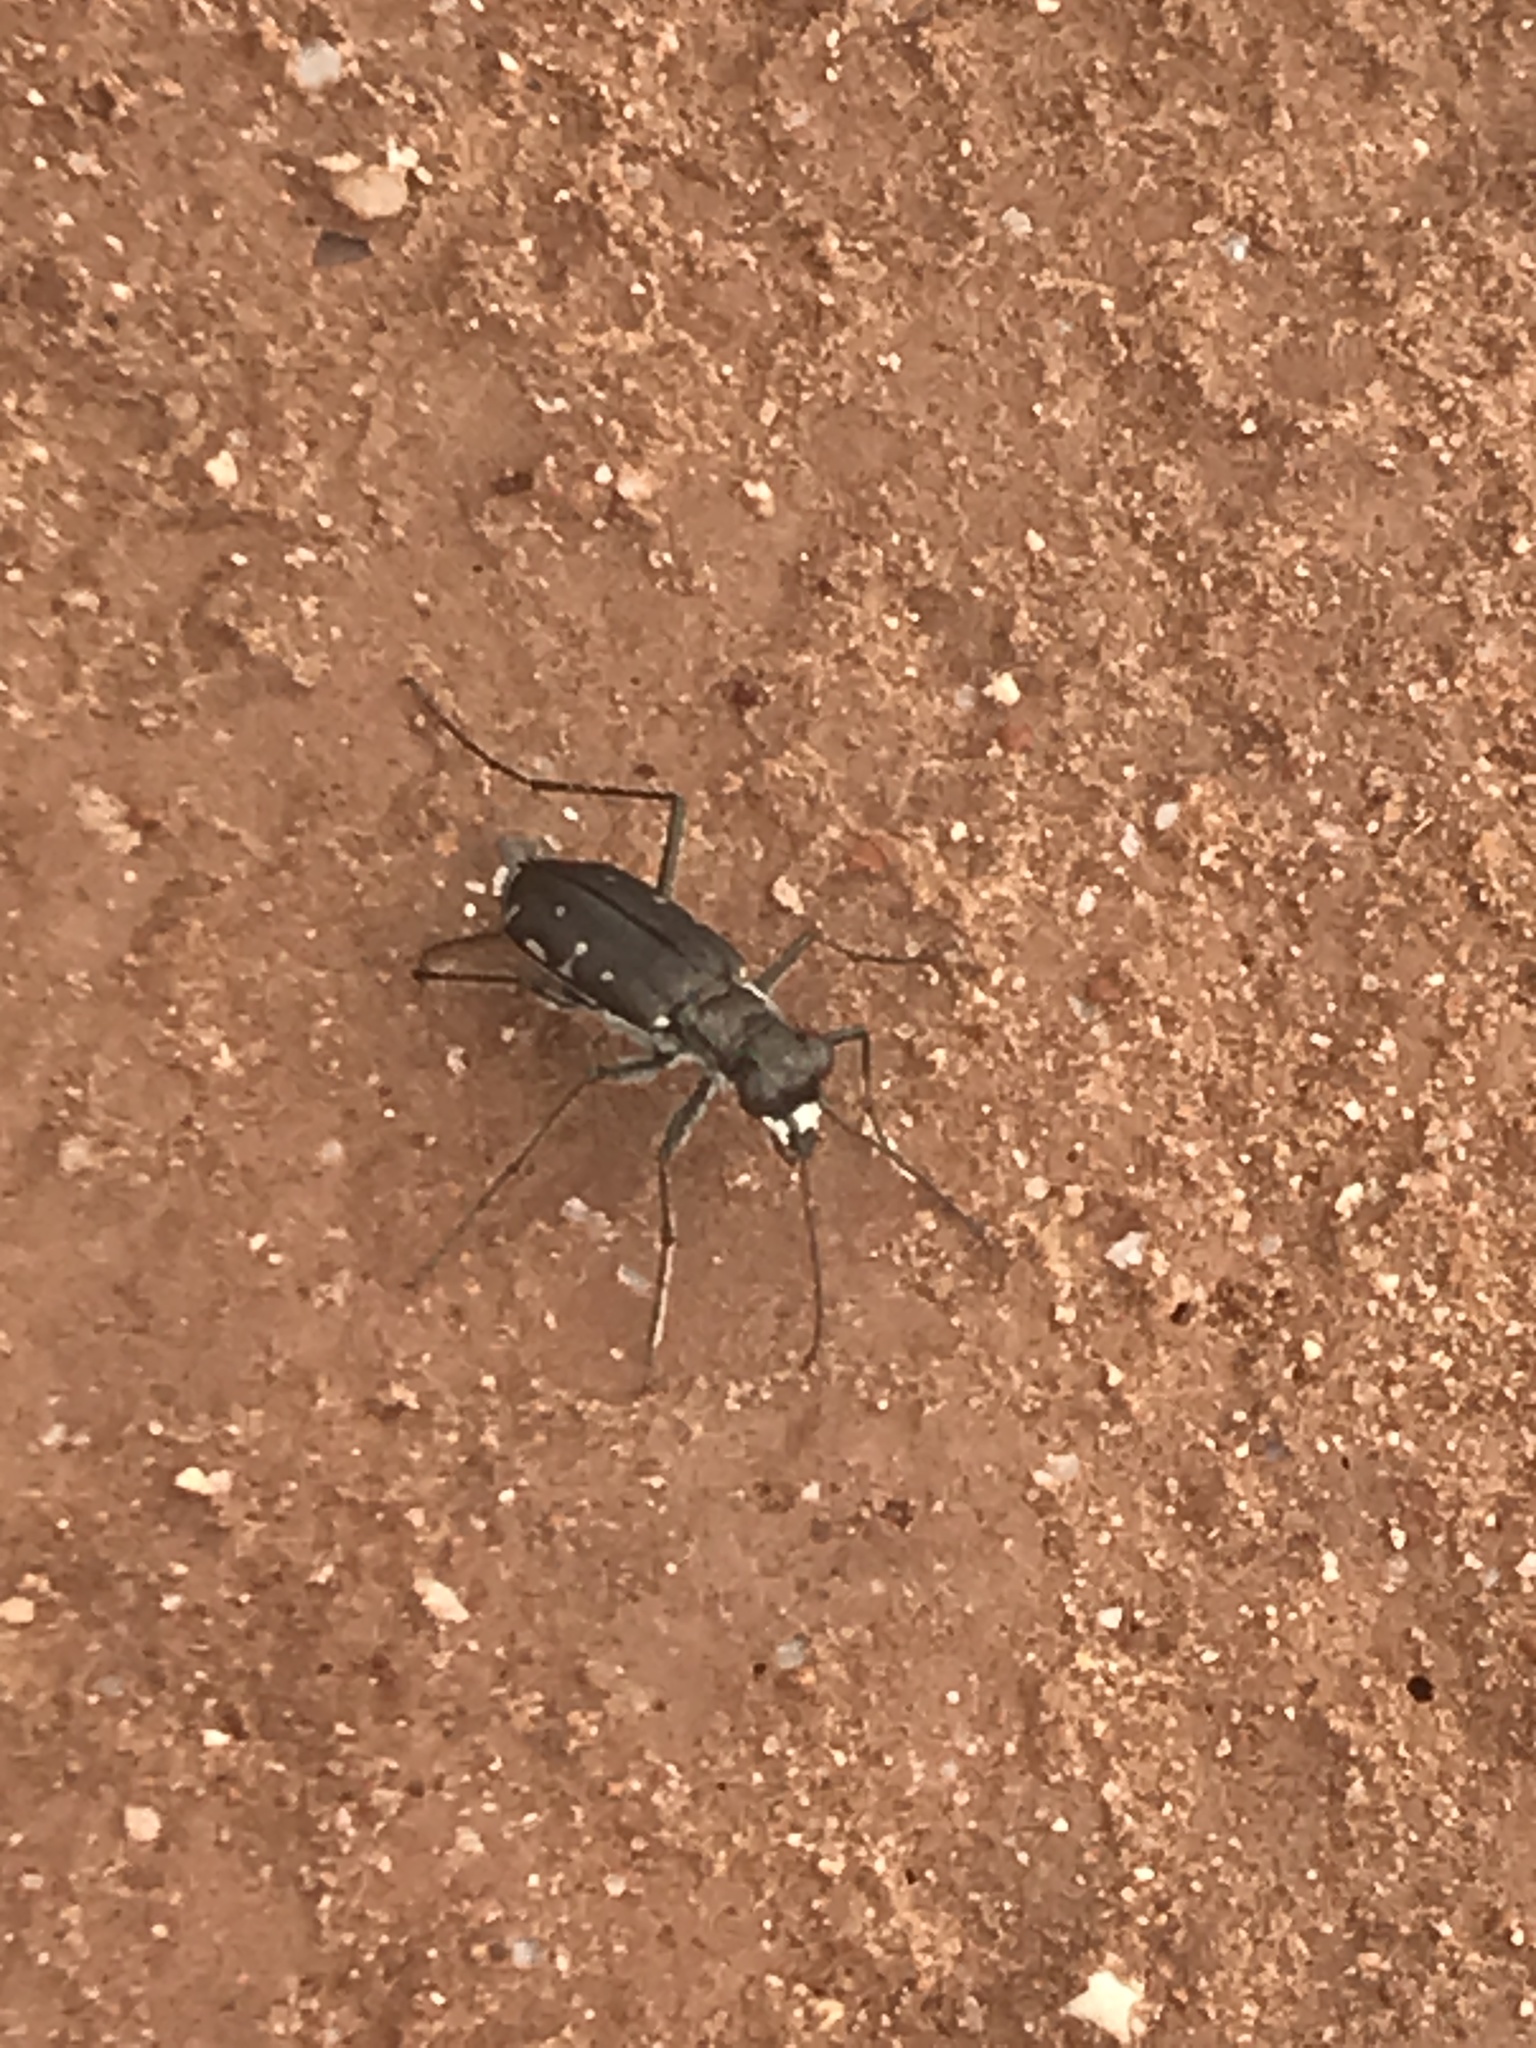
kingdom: Animalia
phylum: Arthropoda
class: Insecta
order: Coleoptera
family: Carabidae
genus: Cicindela
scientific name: Cicindela punctulata
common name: Punctured tiger beetle
